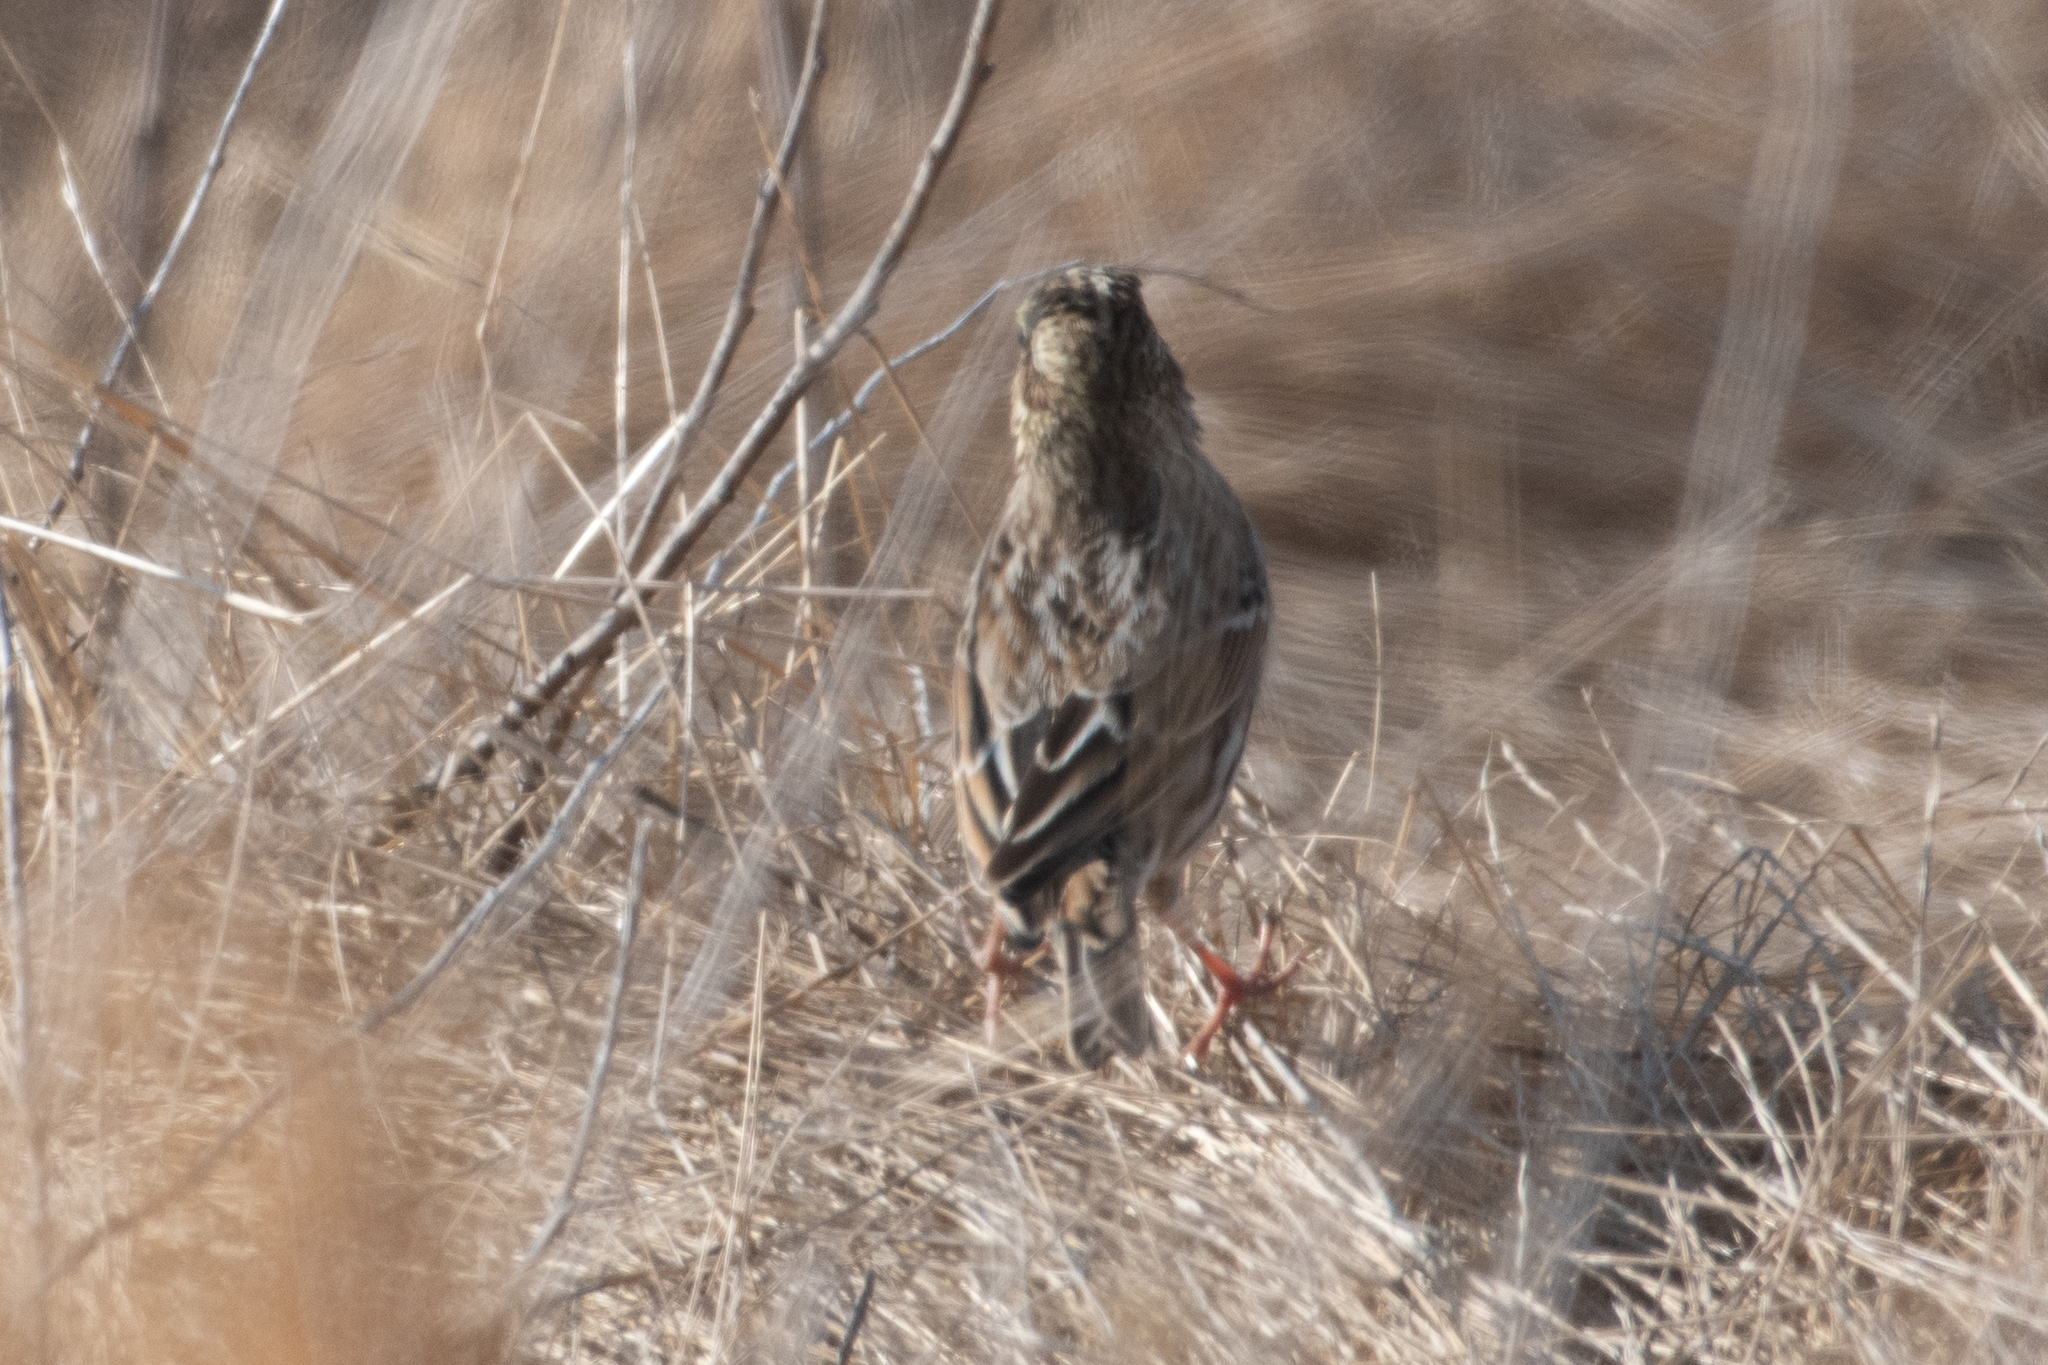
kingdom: Animalia
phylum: Chordata
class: Aves
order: Passeriformes
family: Passerellidae
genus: Passerculus
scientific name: Passerculus sandwichensis
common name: Savannah sparrow
